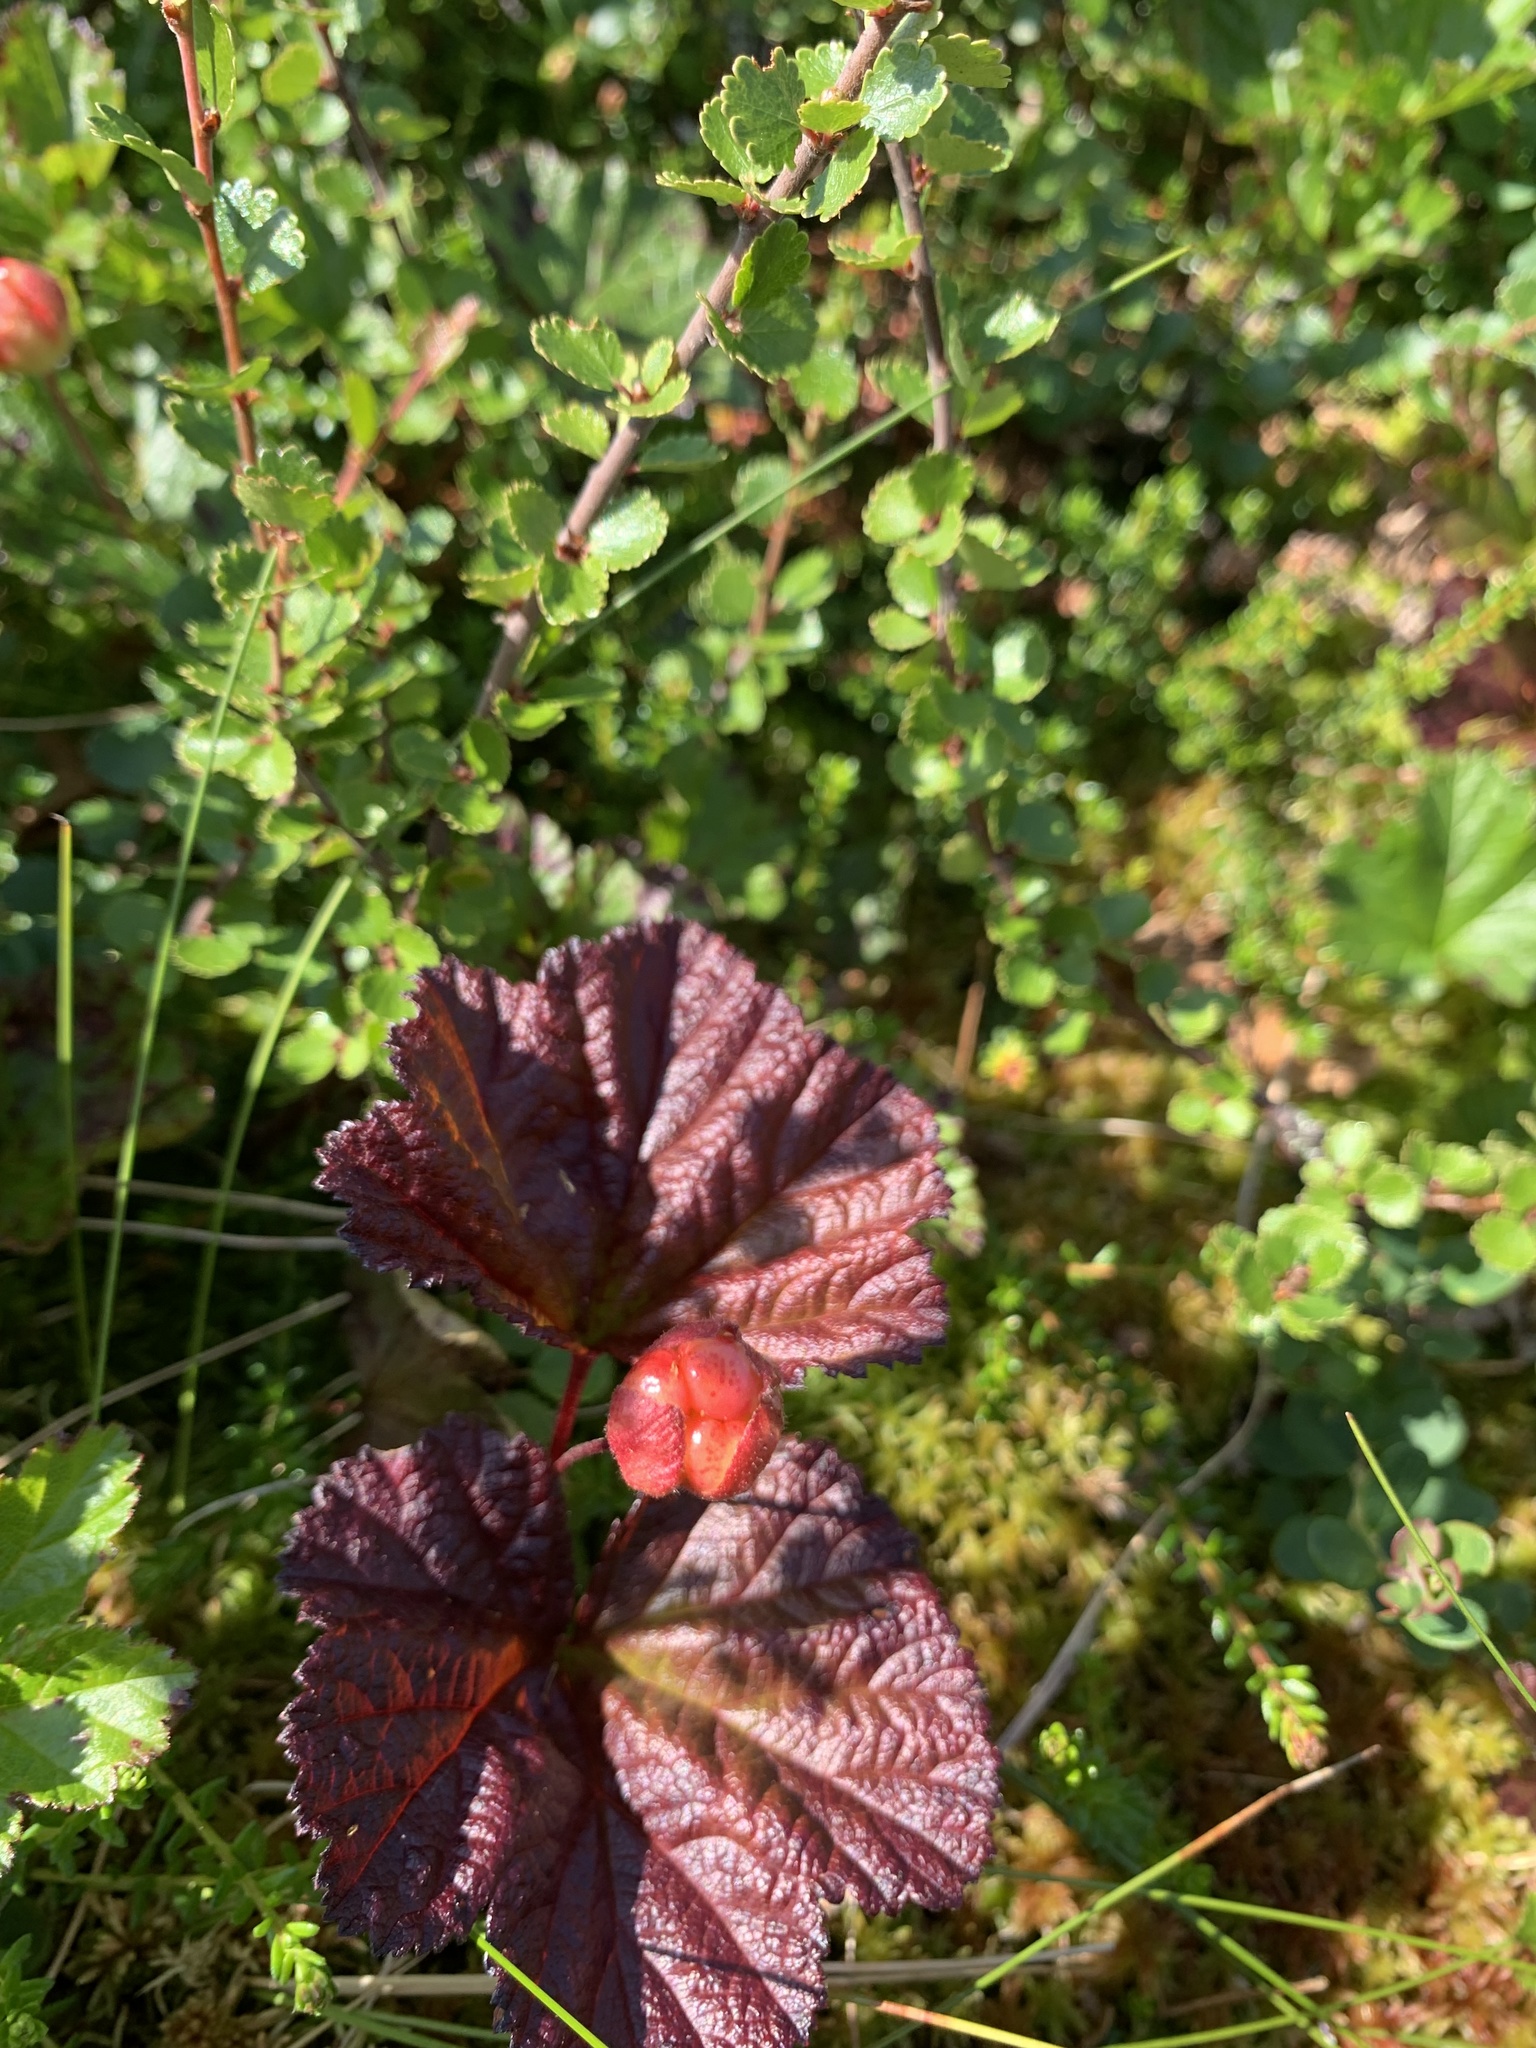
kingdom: Plantae
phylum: Tracheophyta
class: Magnoliopsida
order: Rosales
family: Rosaceae
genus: Rubus
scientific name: Rubus chamaemorus
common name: Cloudberry
